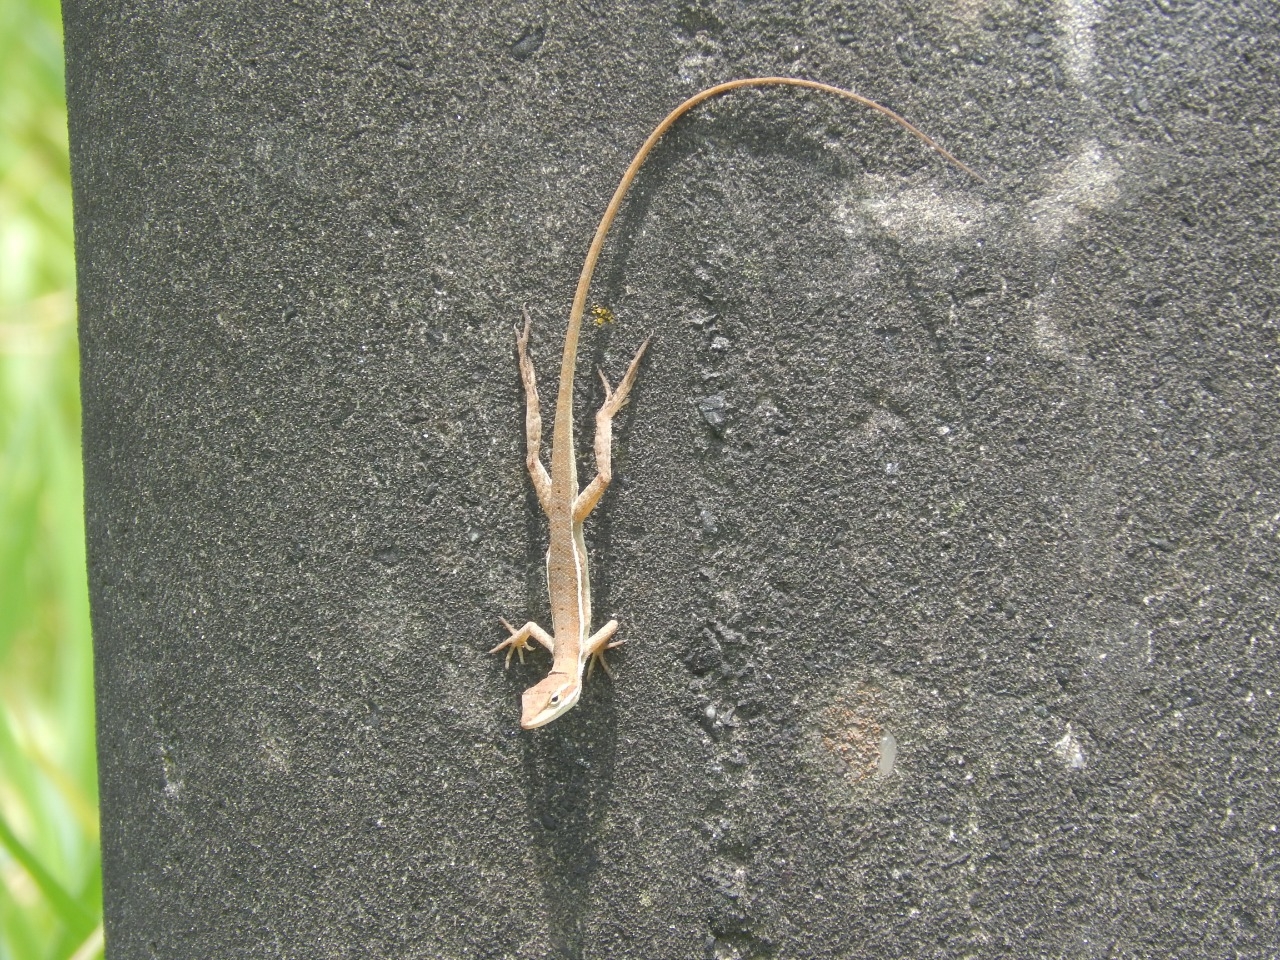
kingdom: Animalia
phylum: Chordata
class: Squamata
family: Dactyloidae
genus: Anolis
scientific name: Anolis auratus
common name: Grass anole
